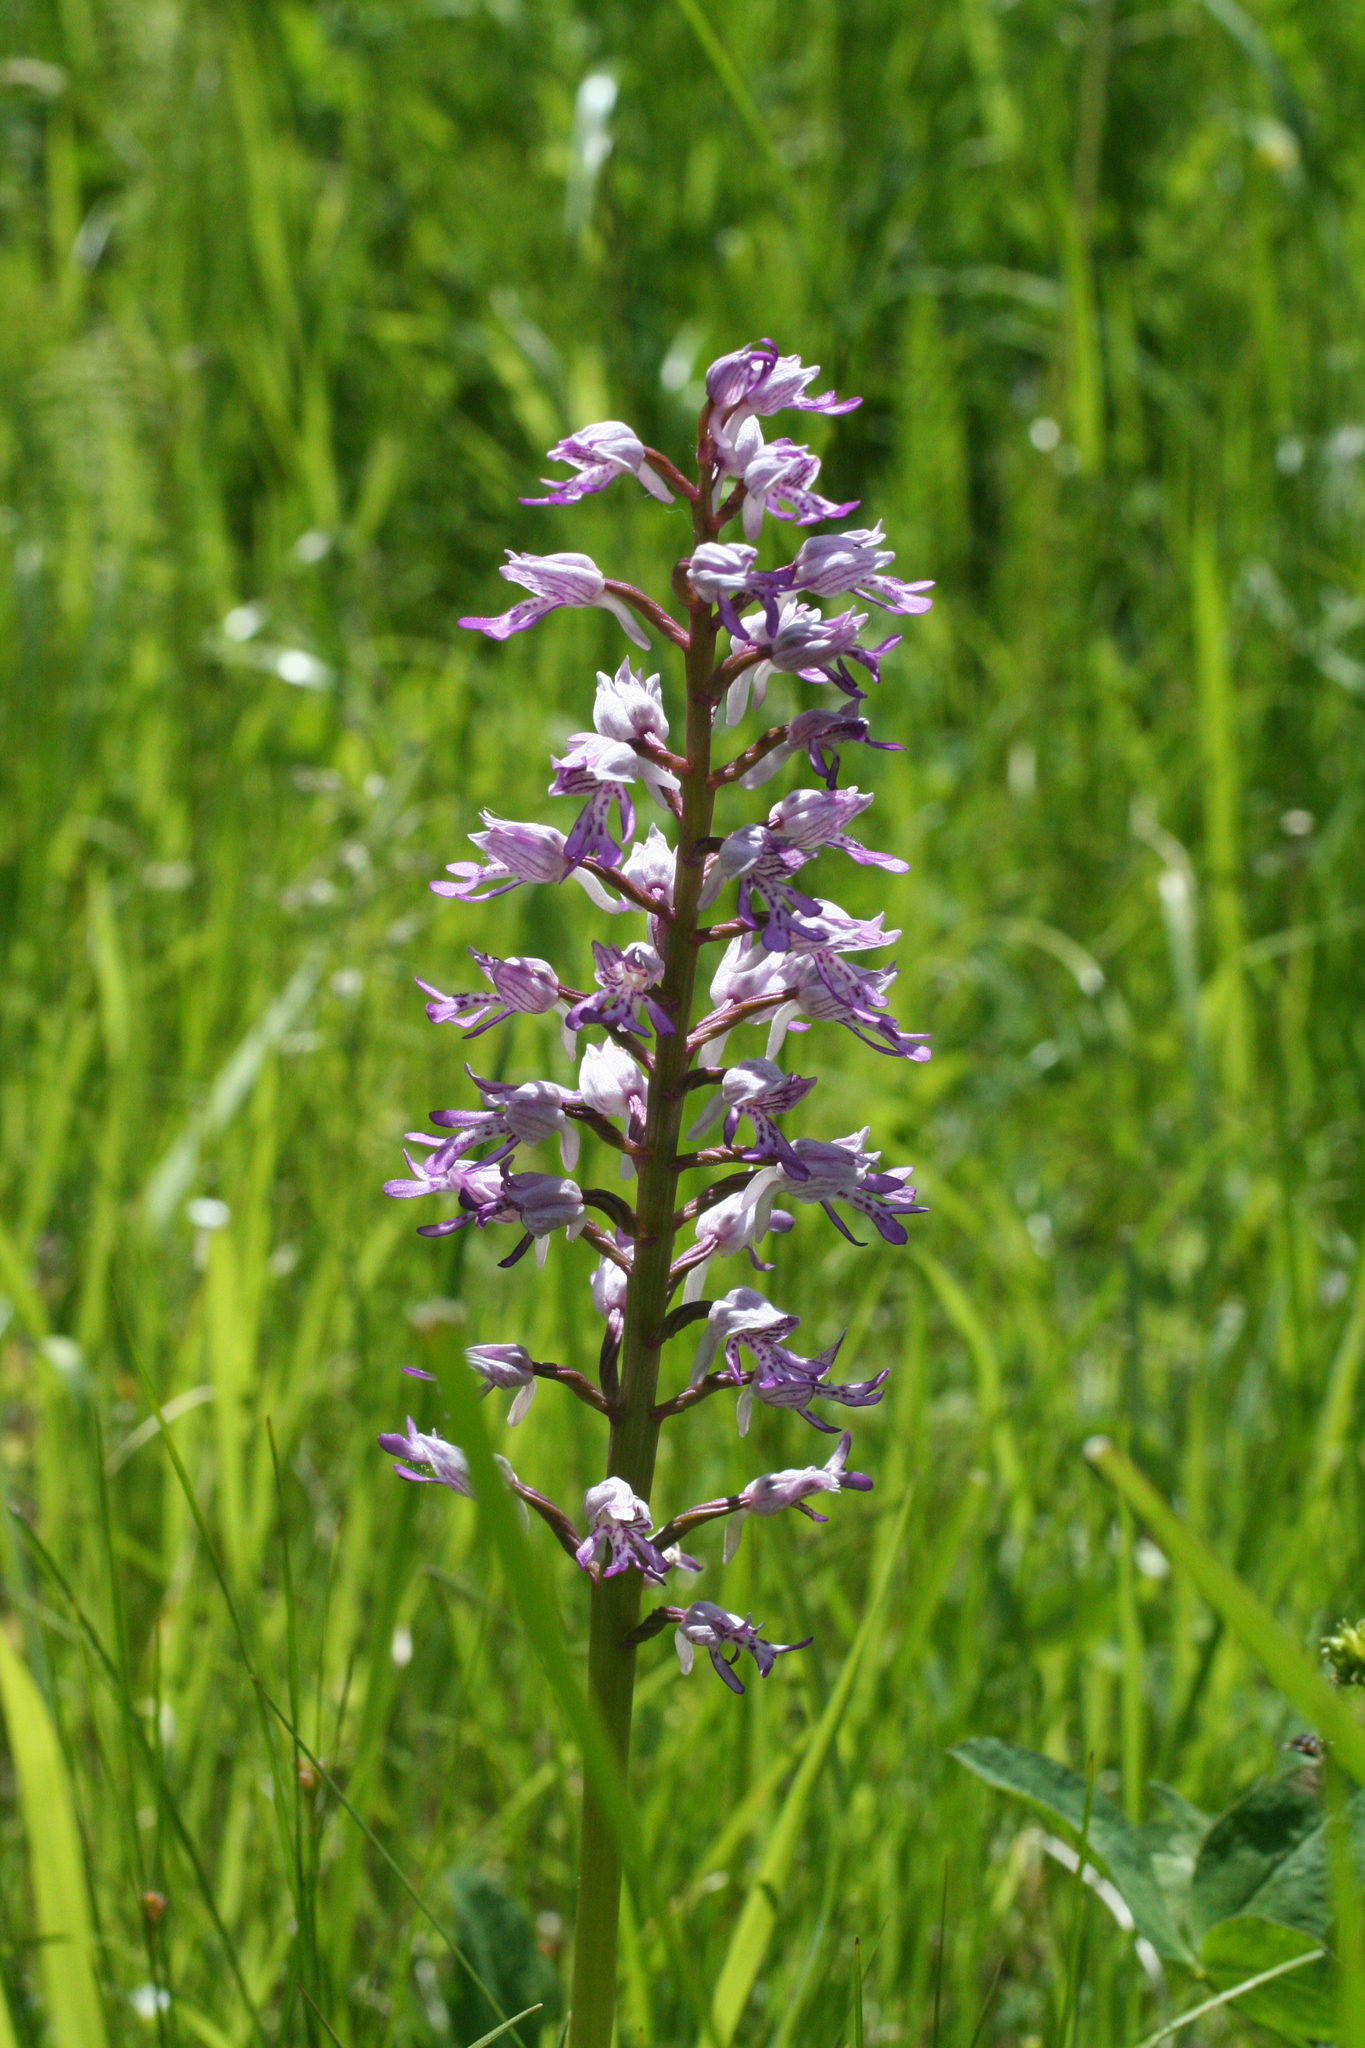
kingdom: Plantae
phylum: Tracheophyta
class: Liliopsida
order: Asparagales
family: Orchidaceae
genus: Orchis
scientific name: Orchis militaris
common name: Military orchid
